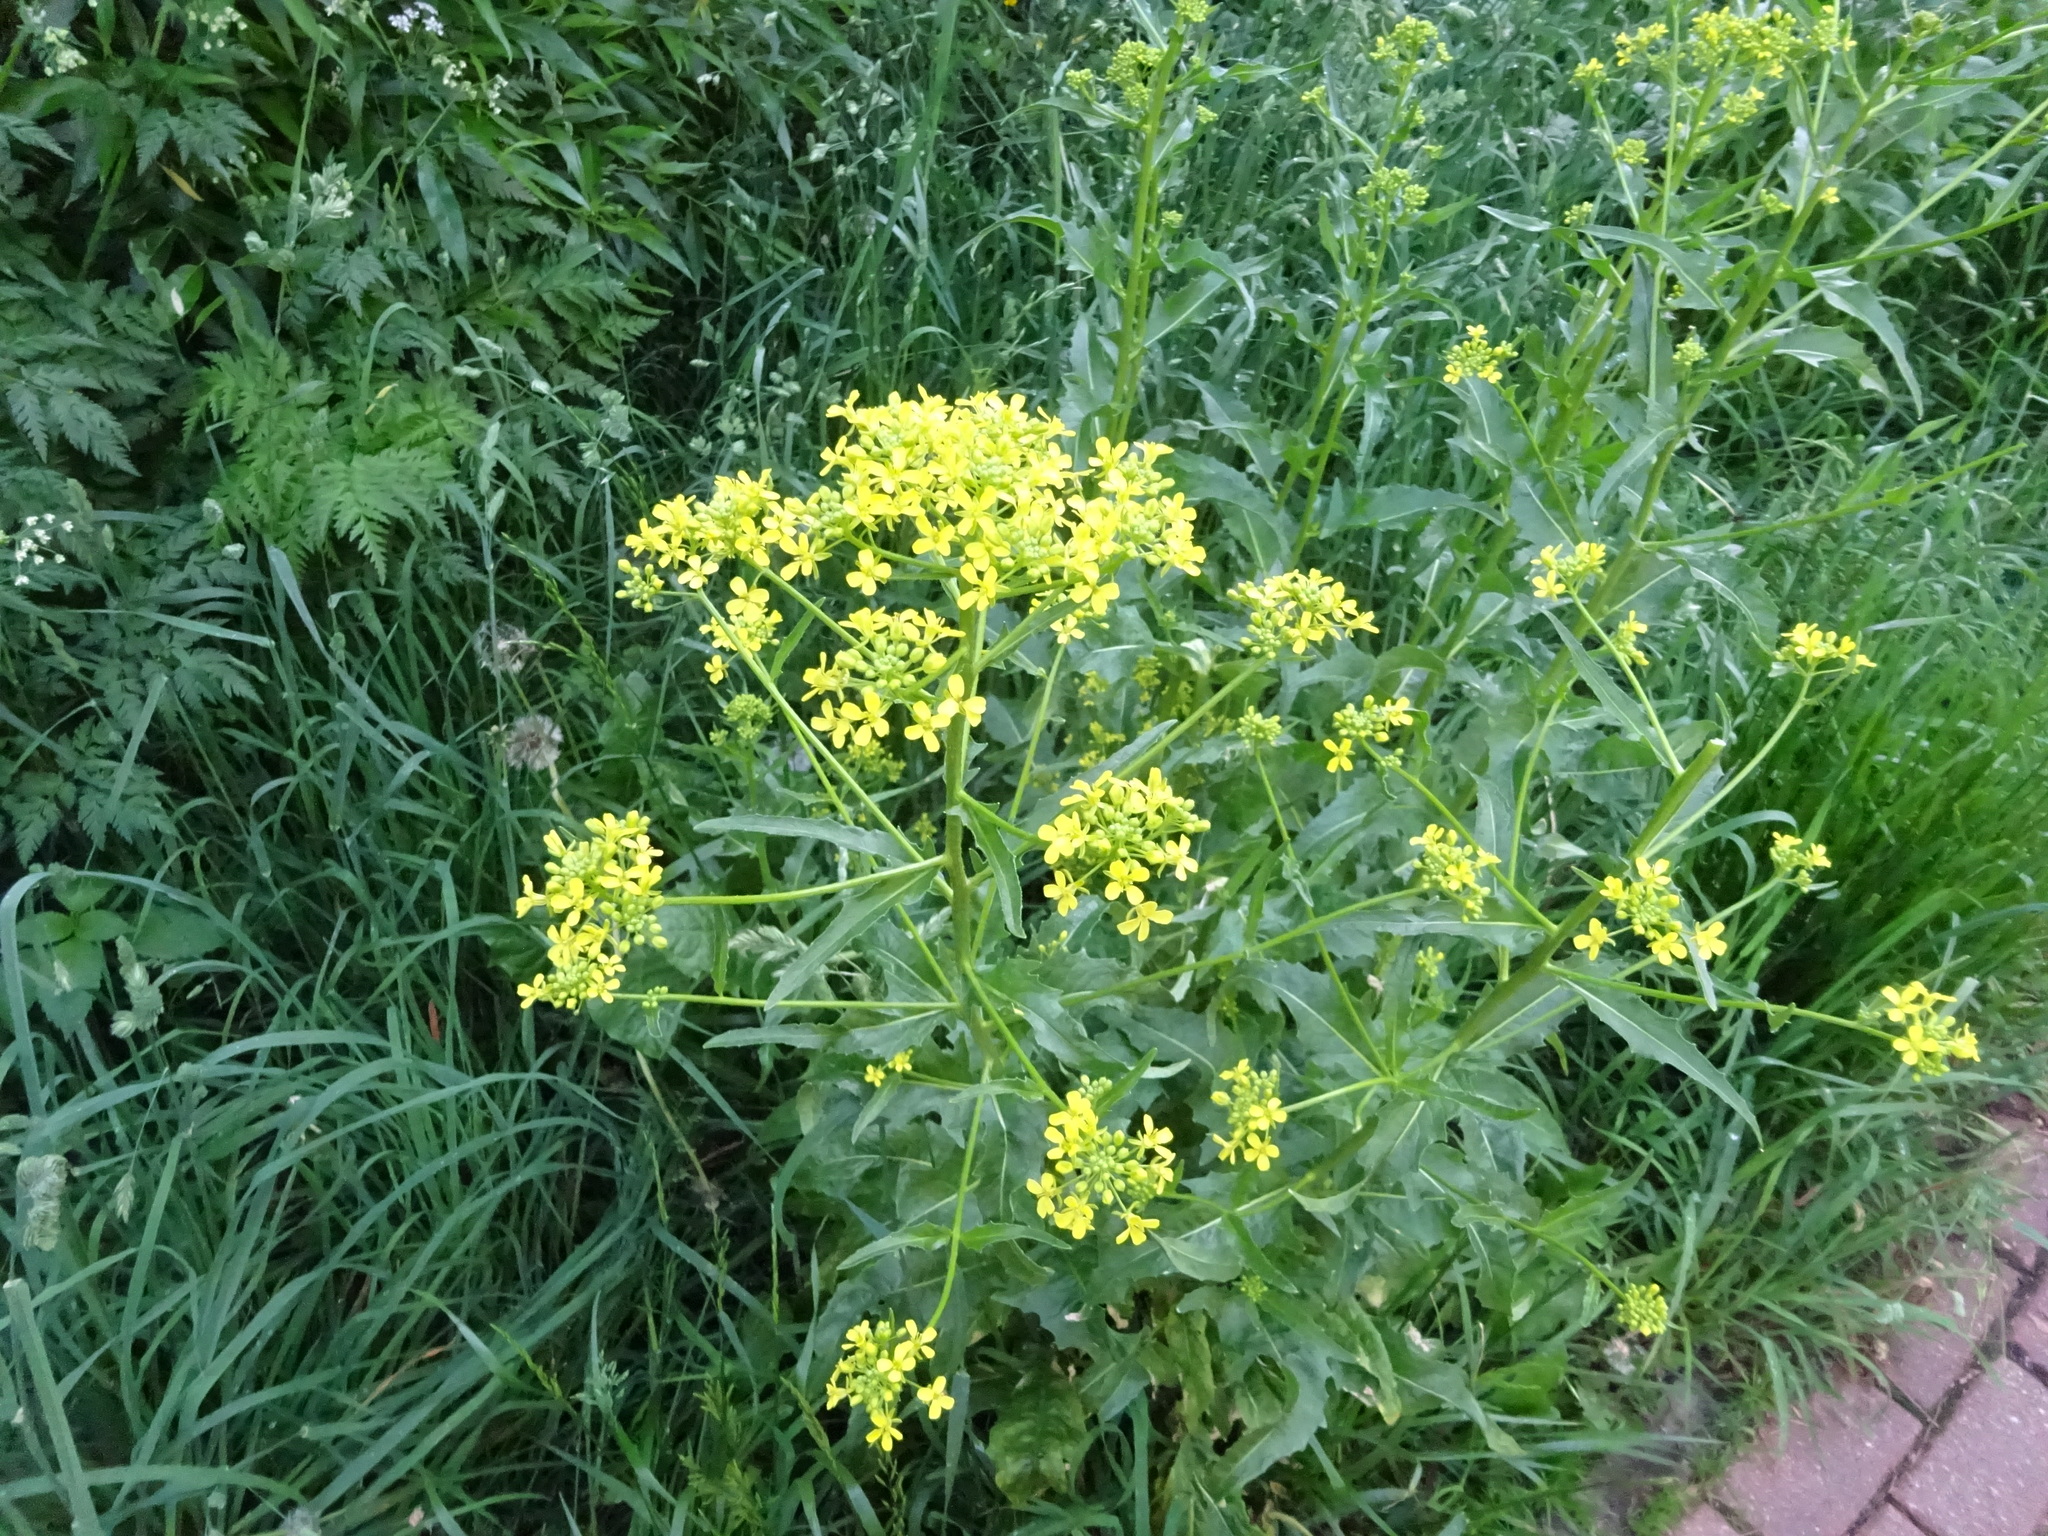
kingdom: Plantae
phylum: Tracheophyta
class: Magnoliopsida
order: Brassicales
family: Brassicaceae
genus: Bunias
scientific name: Bunias orientalis
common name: Warty-cabbage
